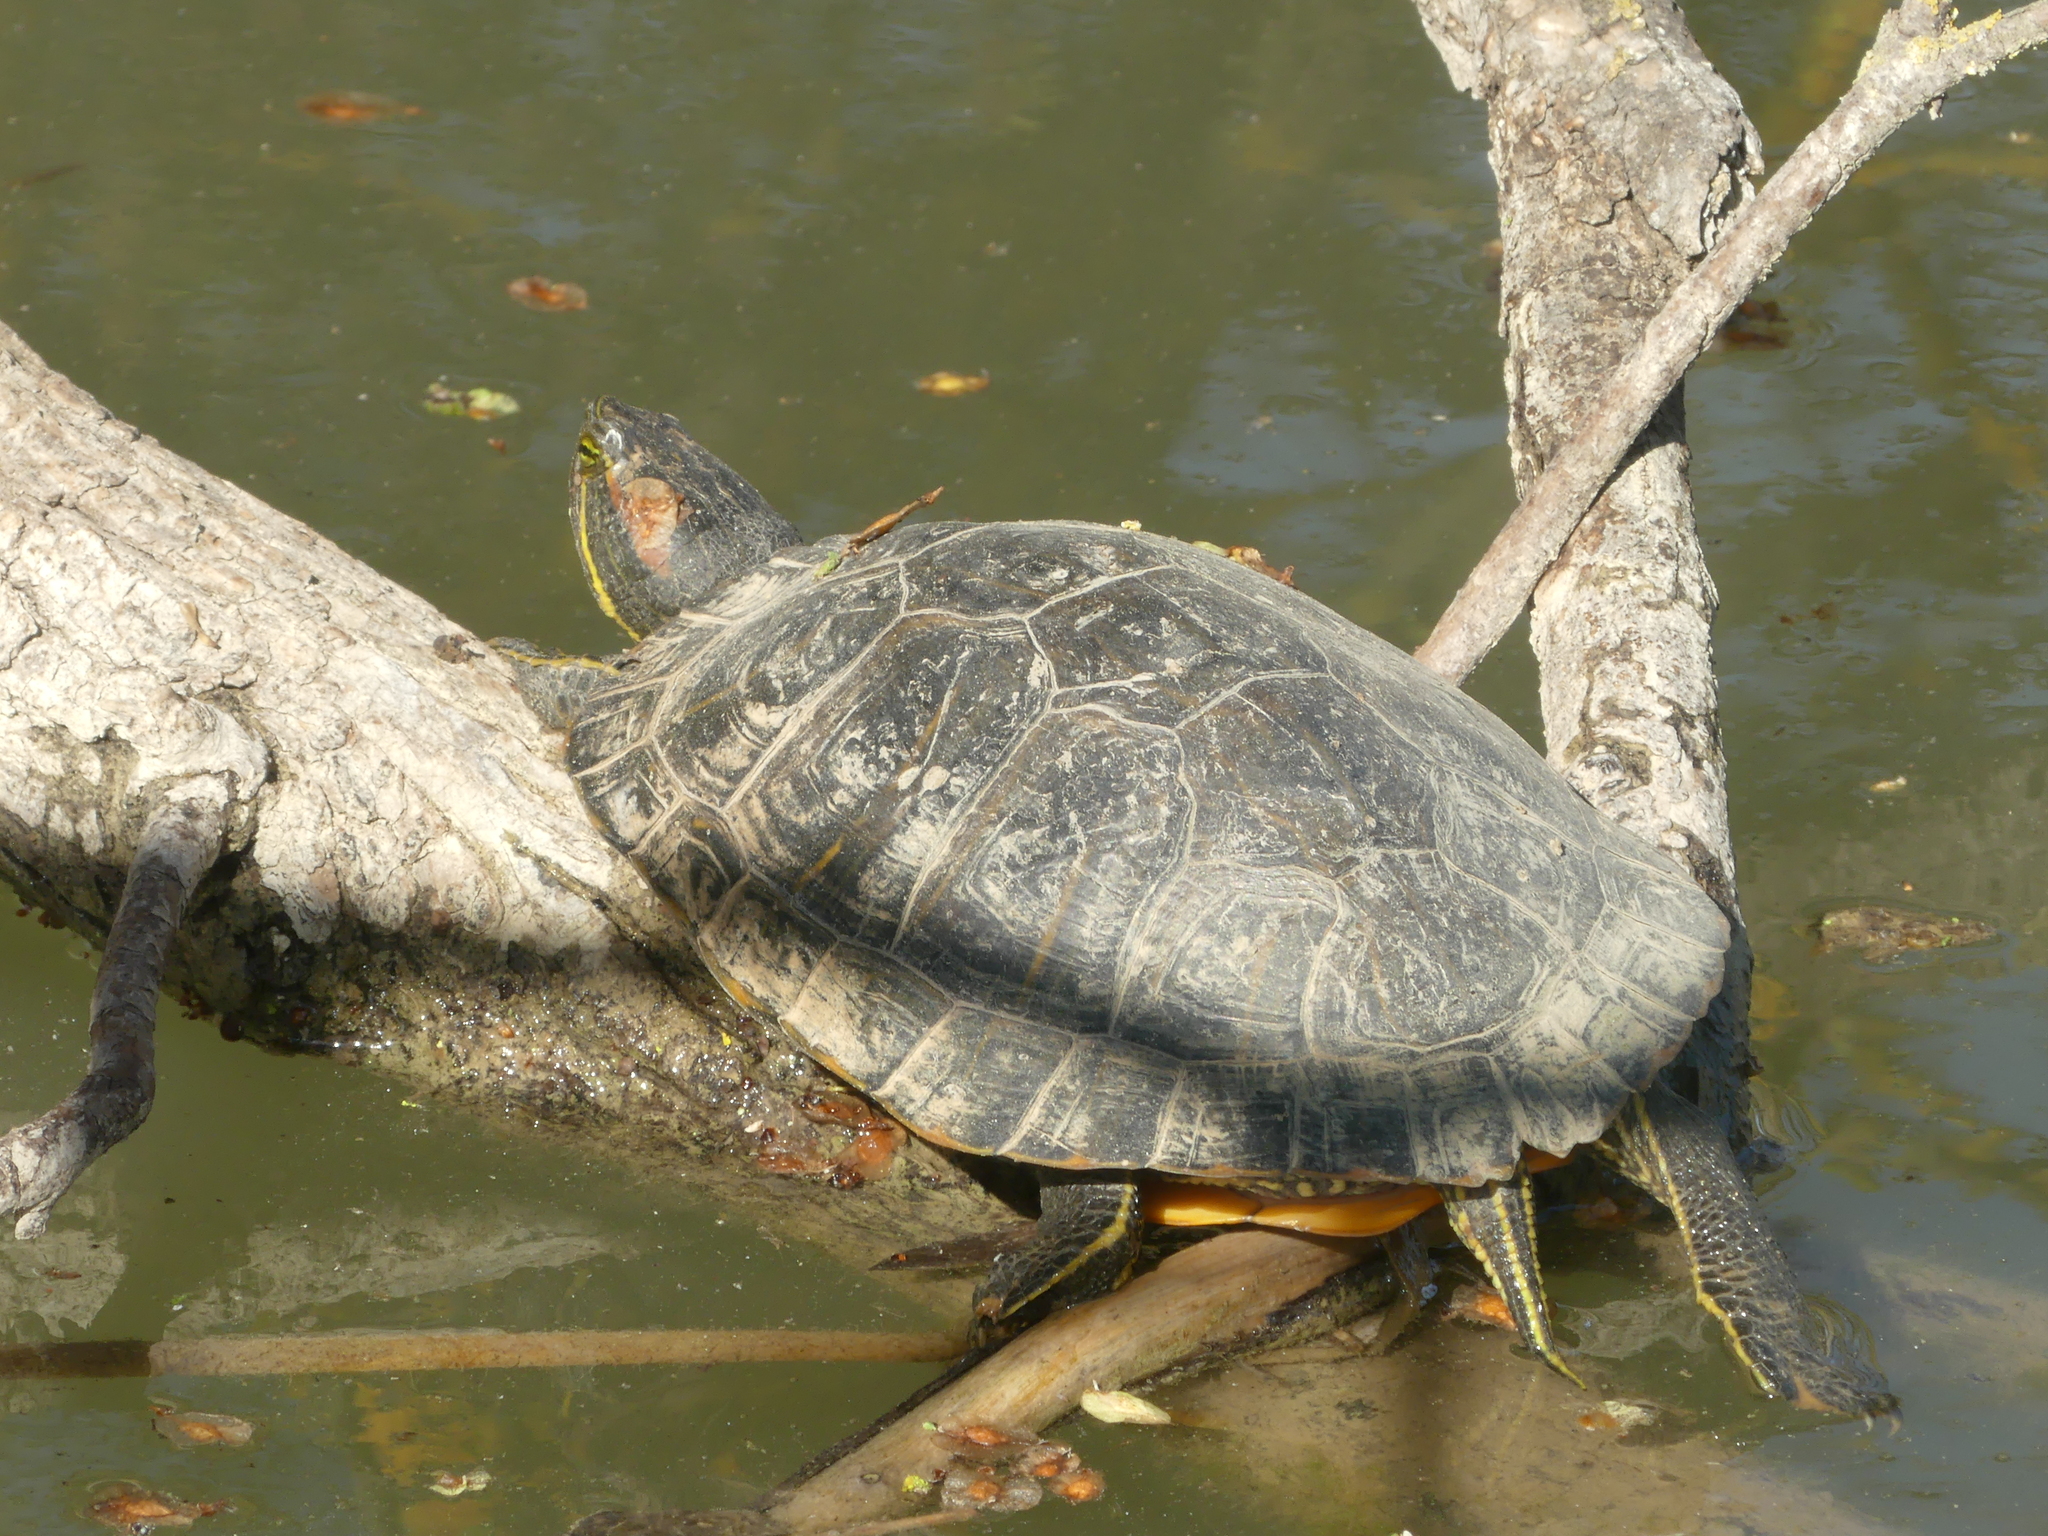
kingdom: Animalia
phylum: Chordata
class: Testudines
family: Emydidae
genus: Trachemys
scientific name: Trachemys scripta
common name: Slider
